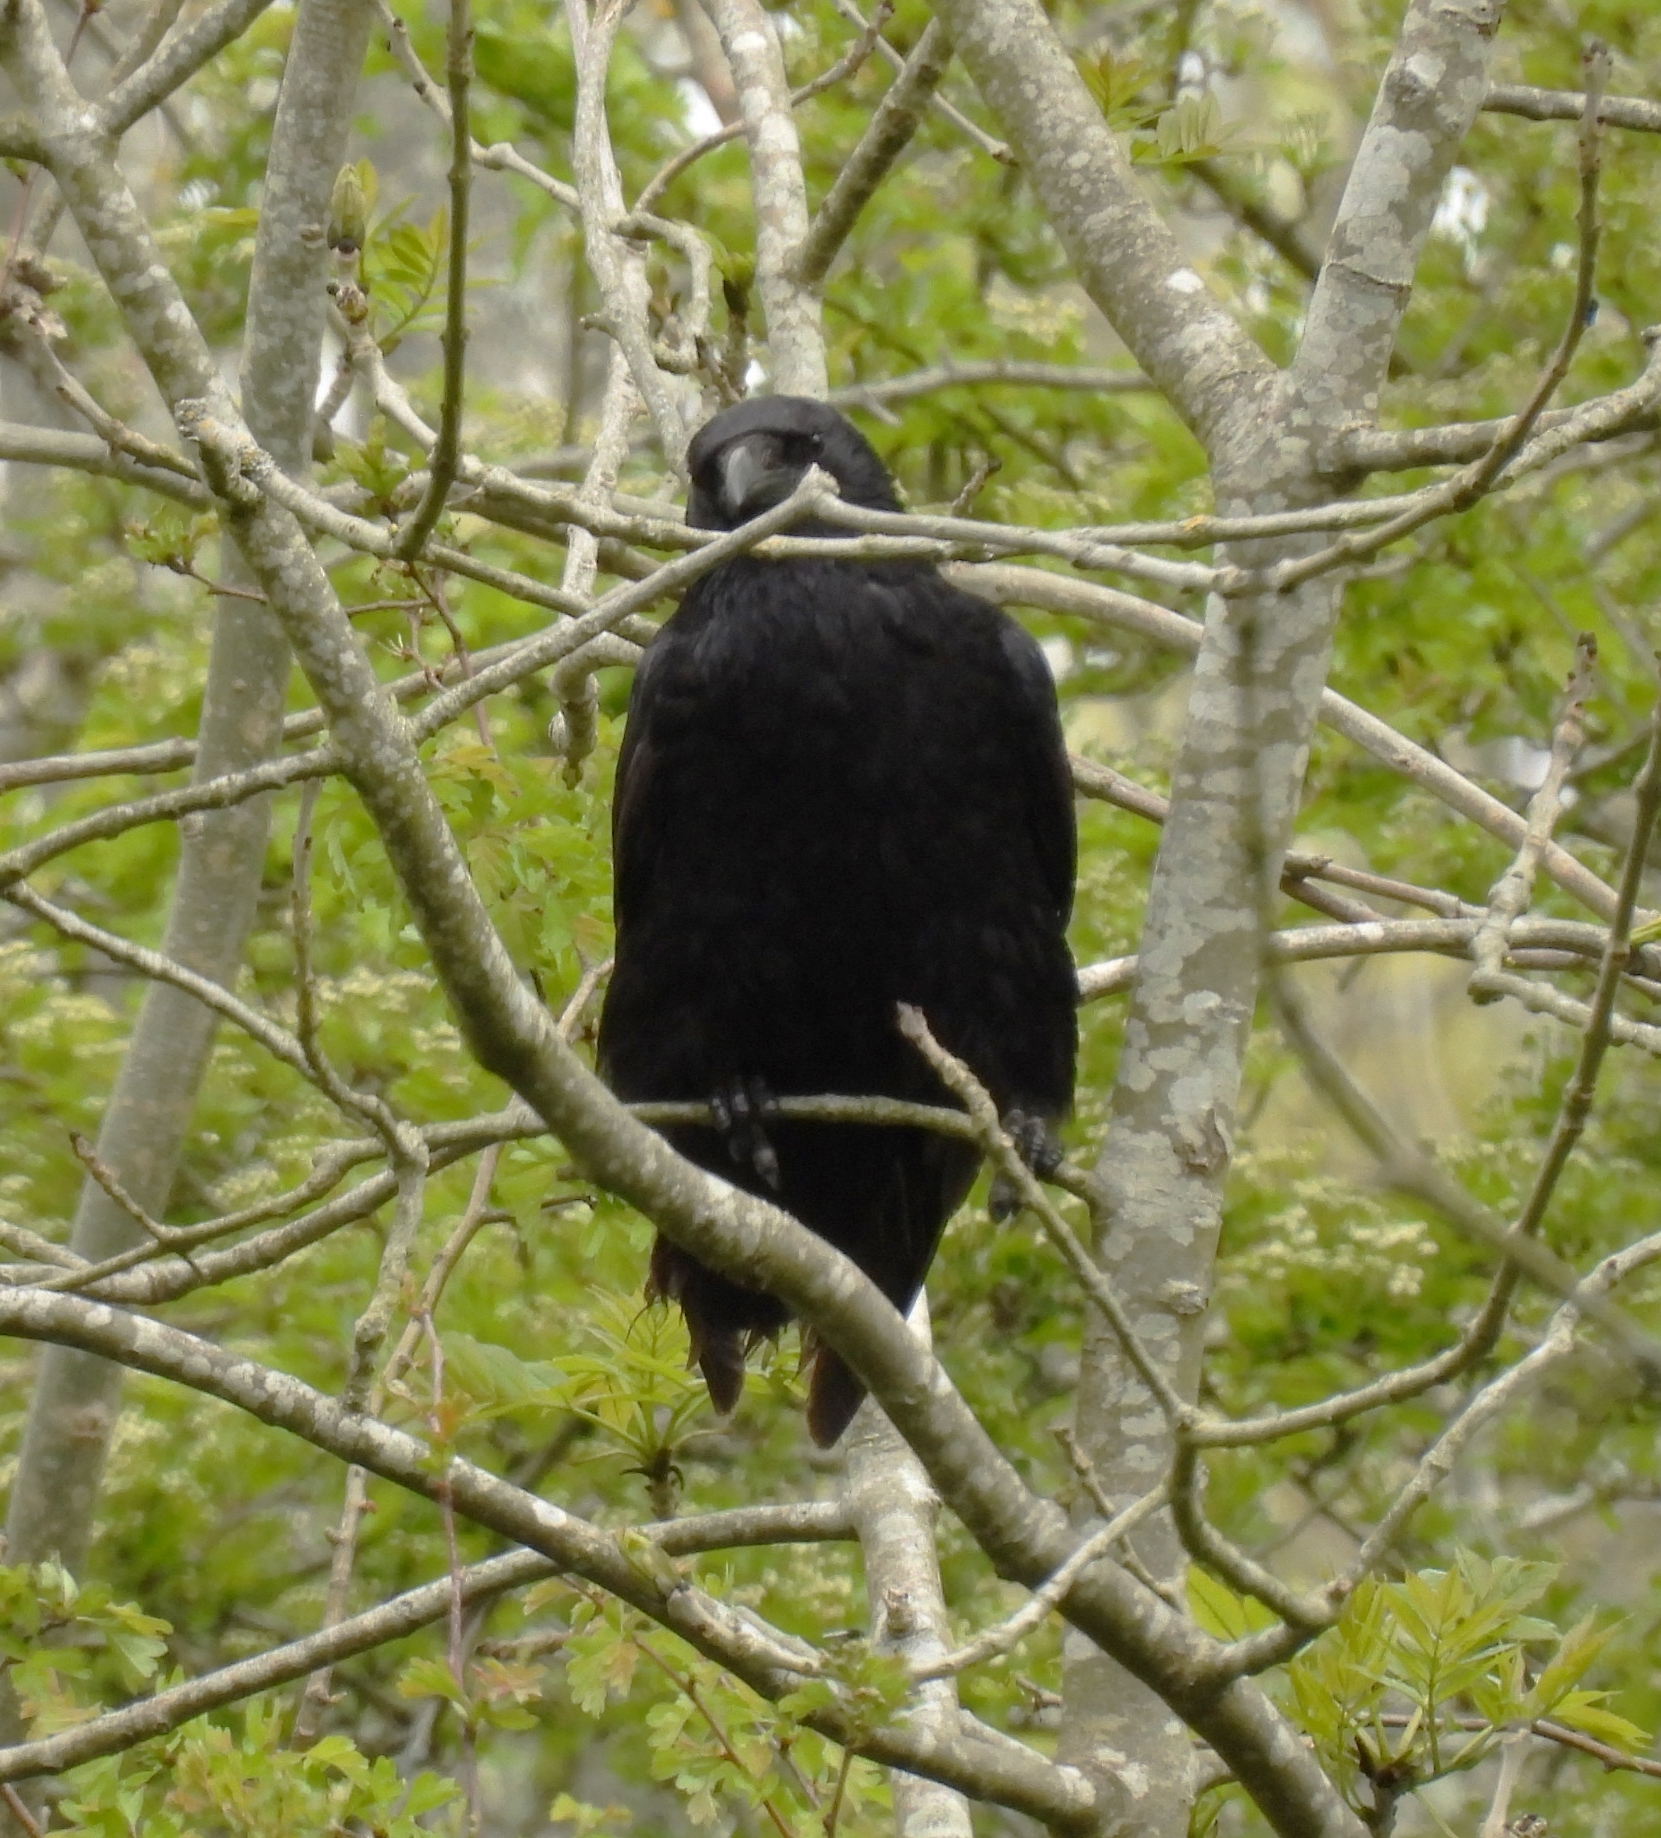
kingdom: Animalia
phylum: Chordata
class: Aves
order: Passeriformes
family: Corvidae
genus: Corvus
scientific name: Corvus corone
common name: Carrion crow
